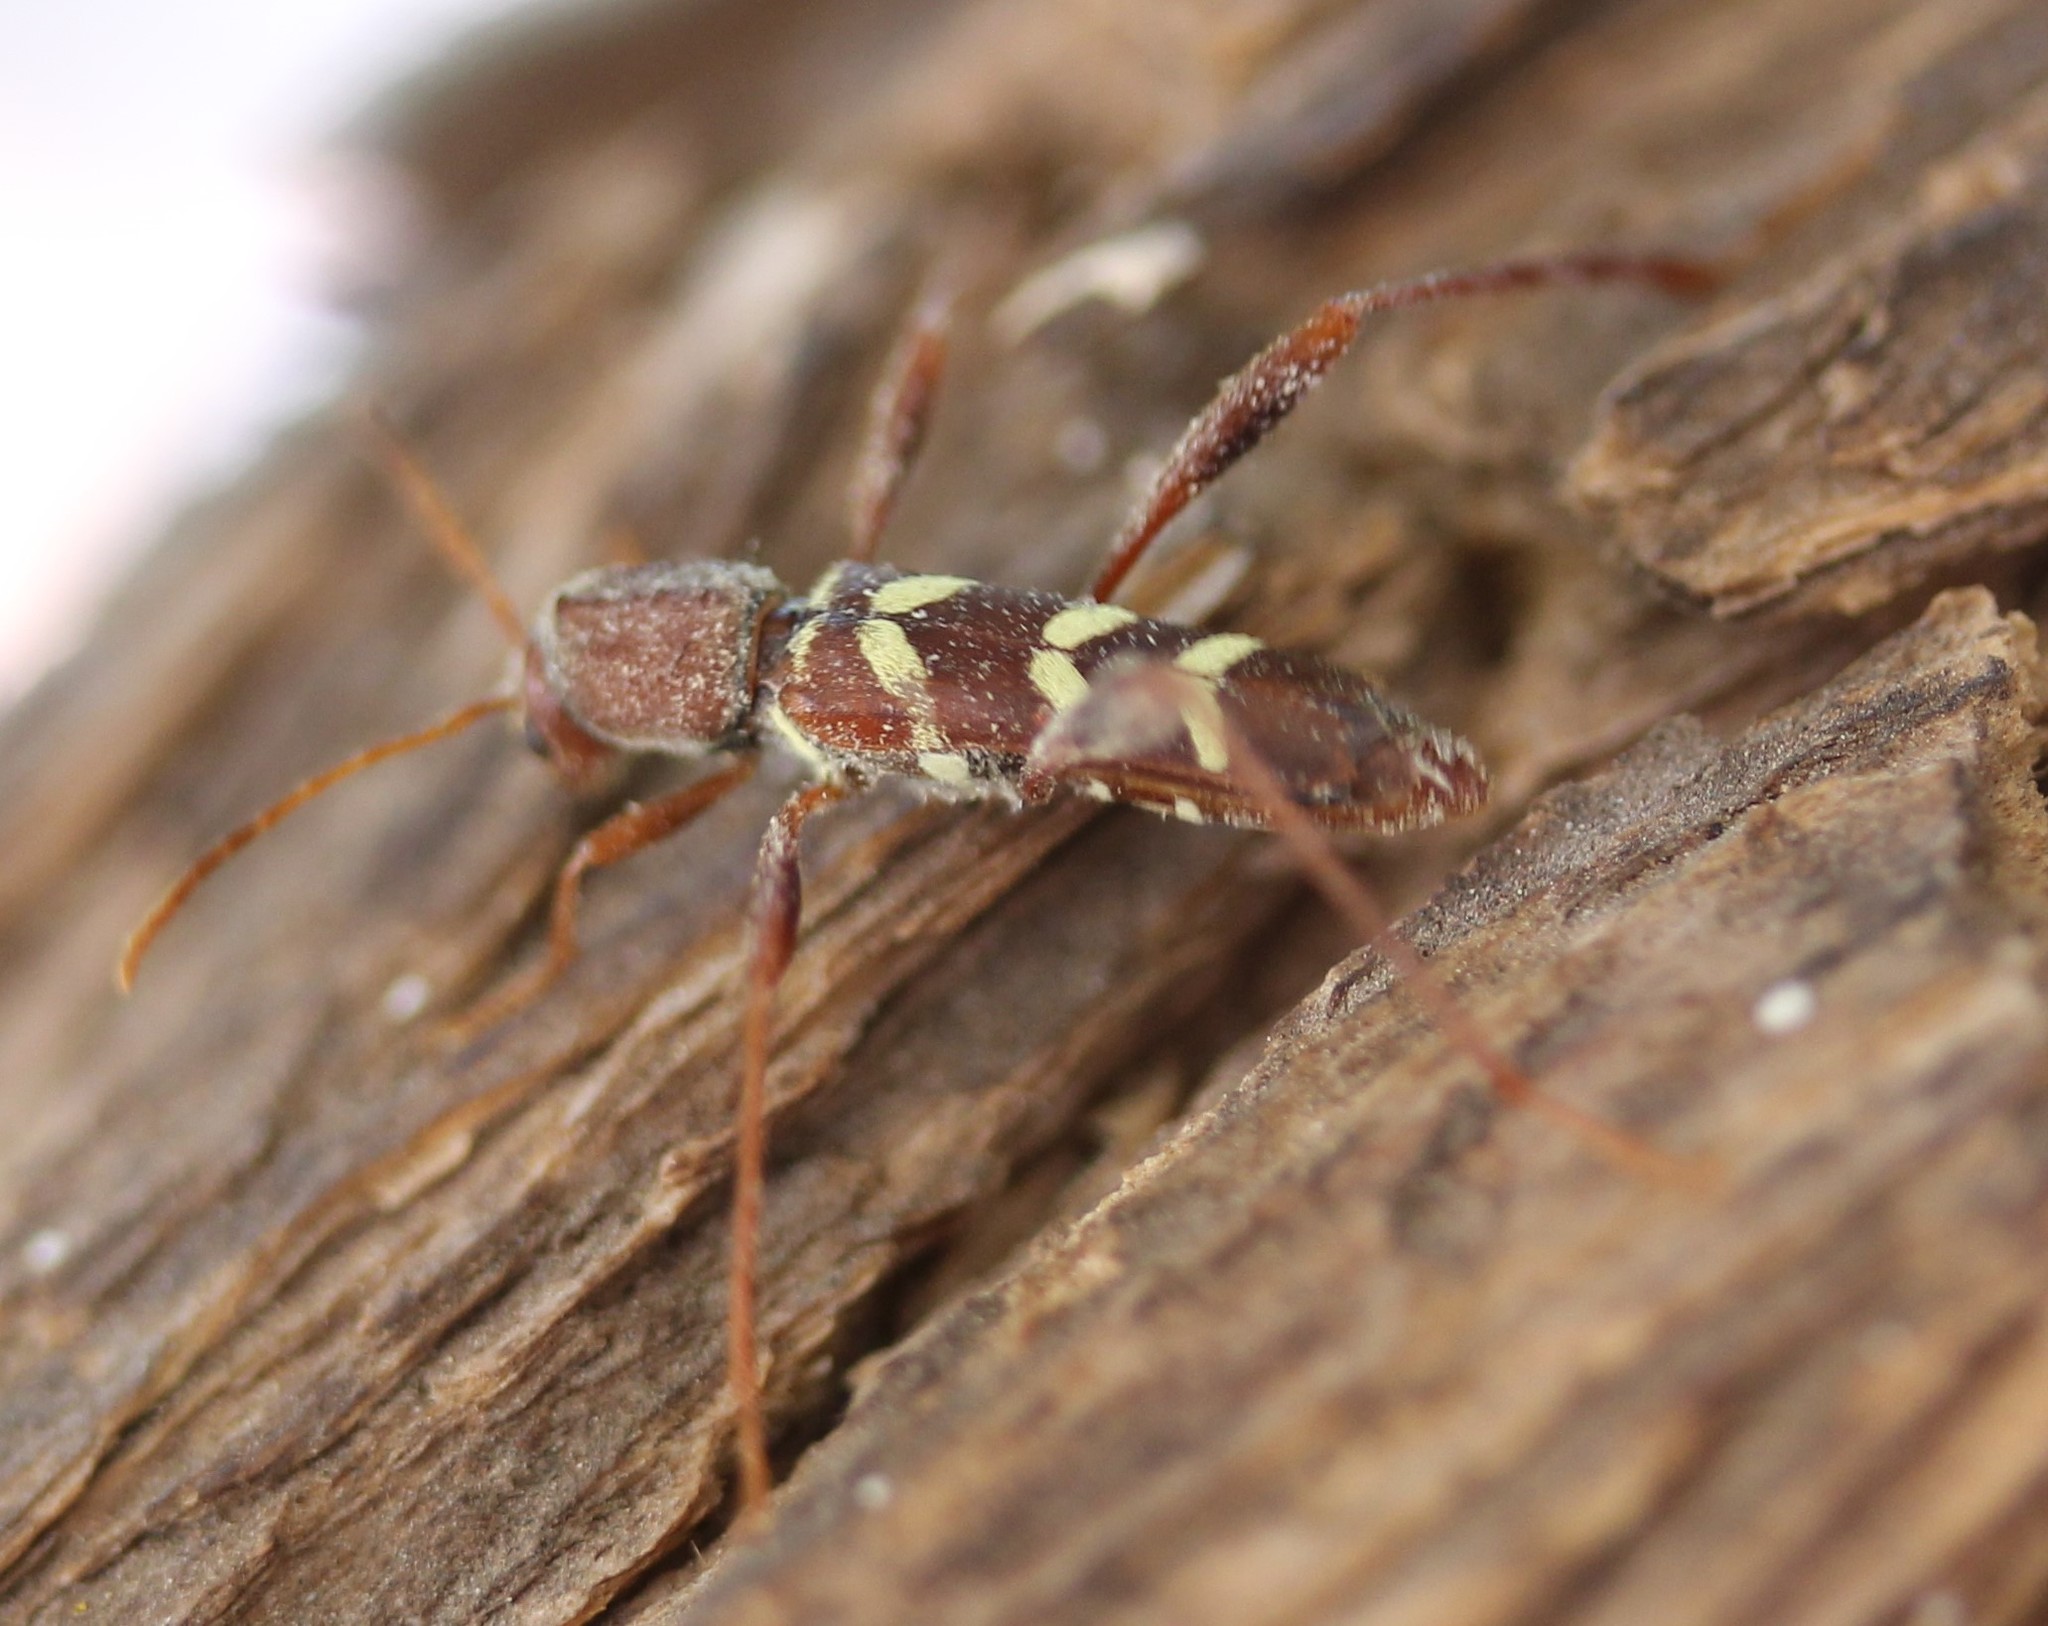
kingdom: Animalia
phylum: Arthropoda
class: Insecta
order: Coleoptera
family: Cerambycidae
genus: Neoclytus
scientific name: Neoclytus acuminatus
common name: Read-headed ash borer
